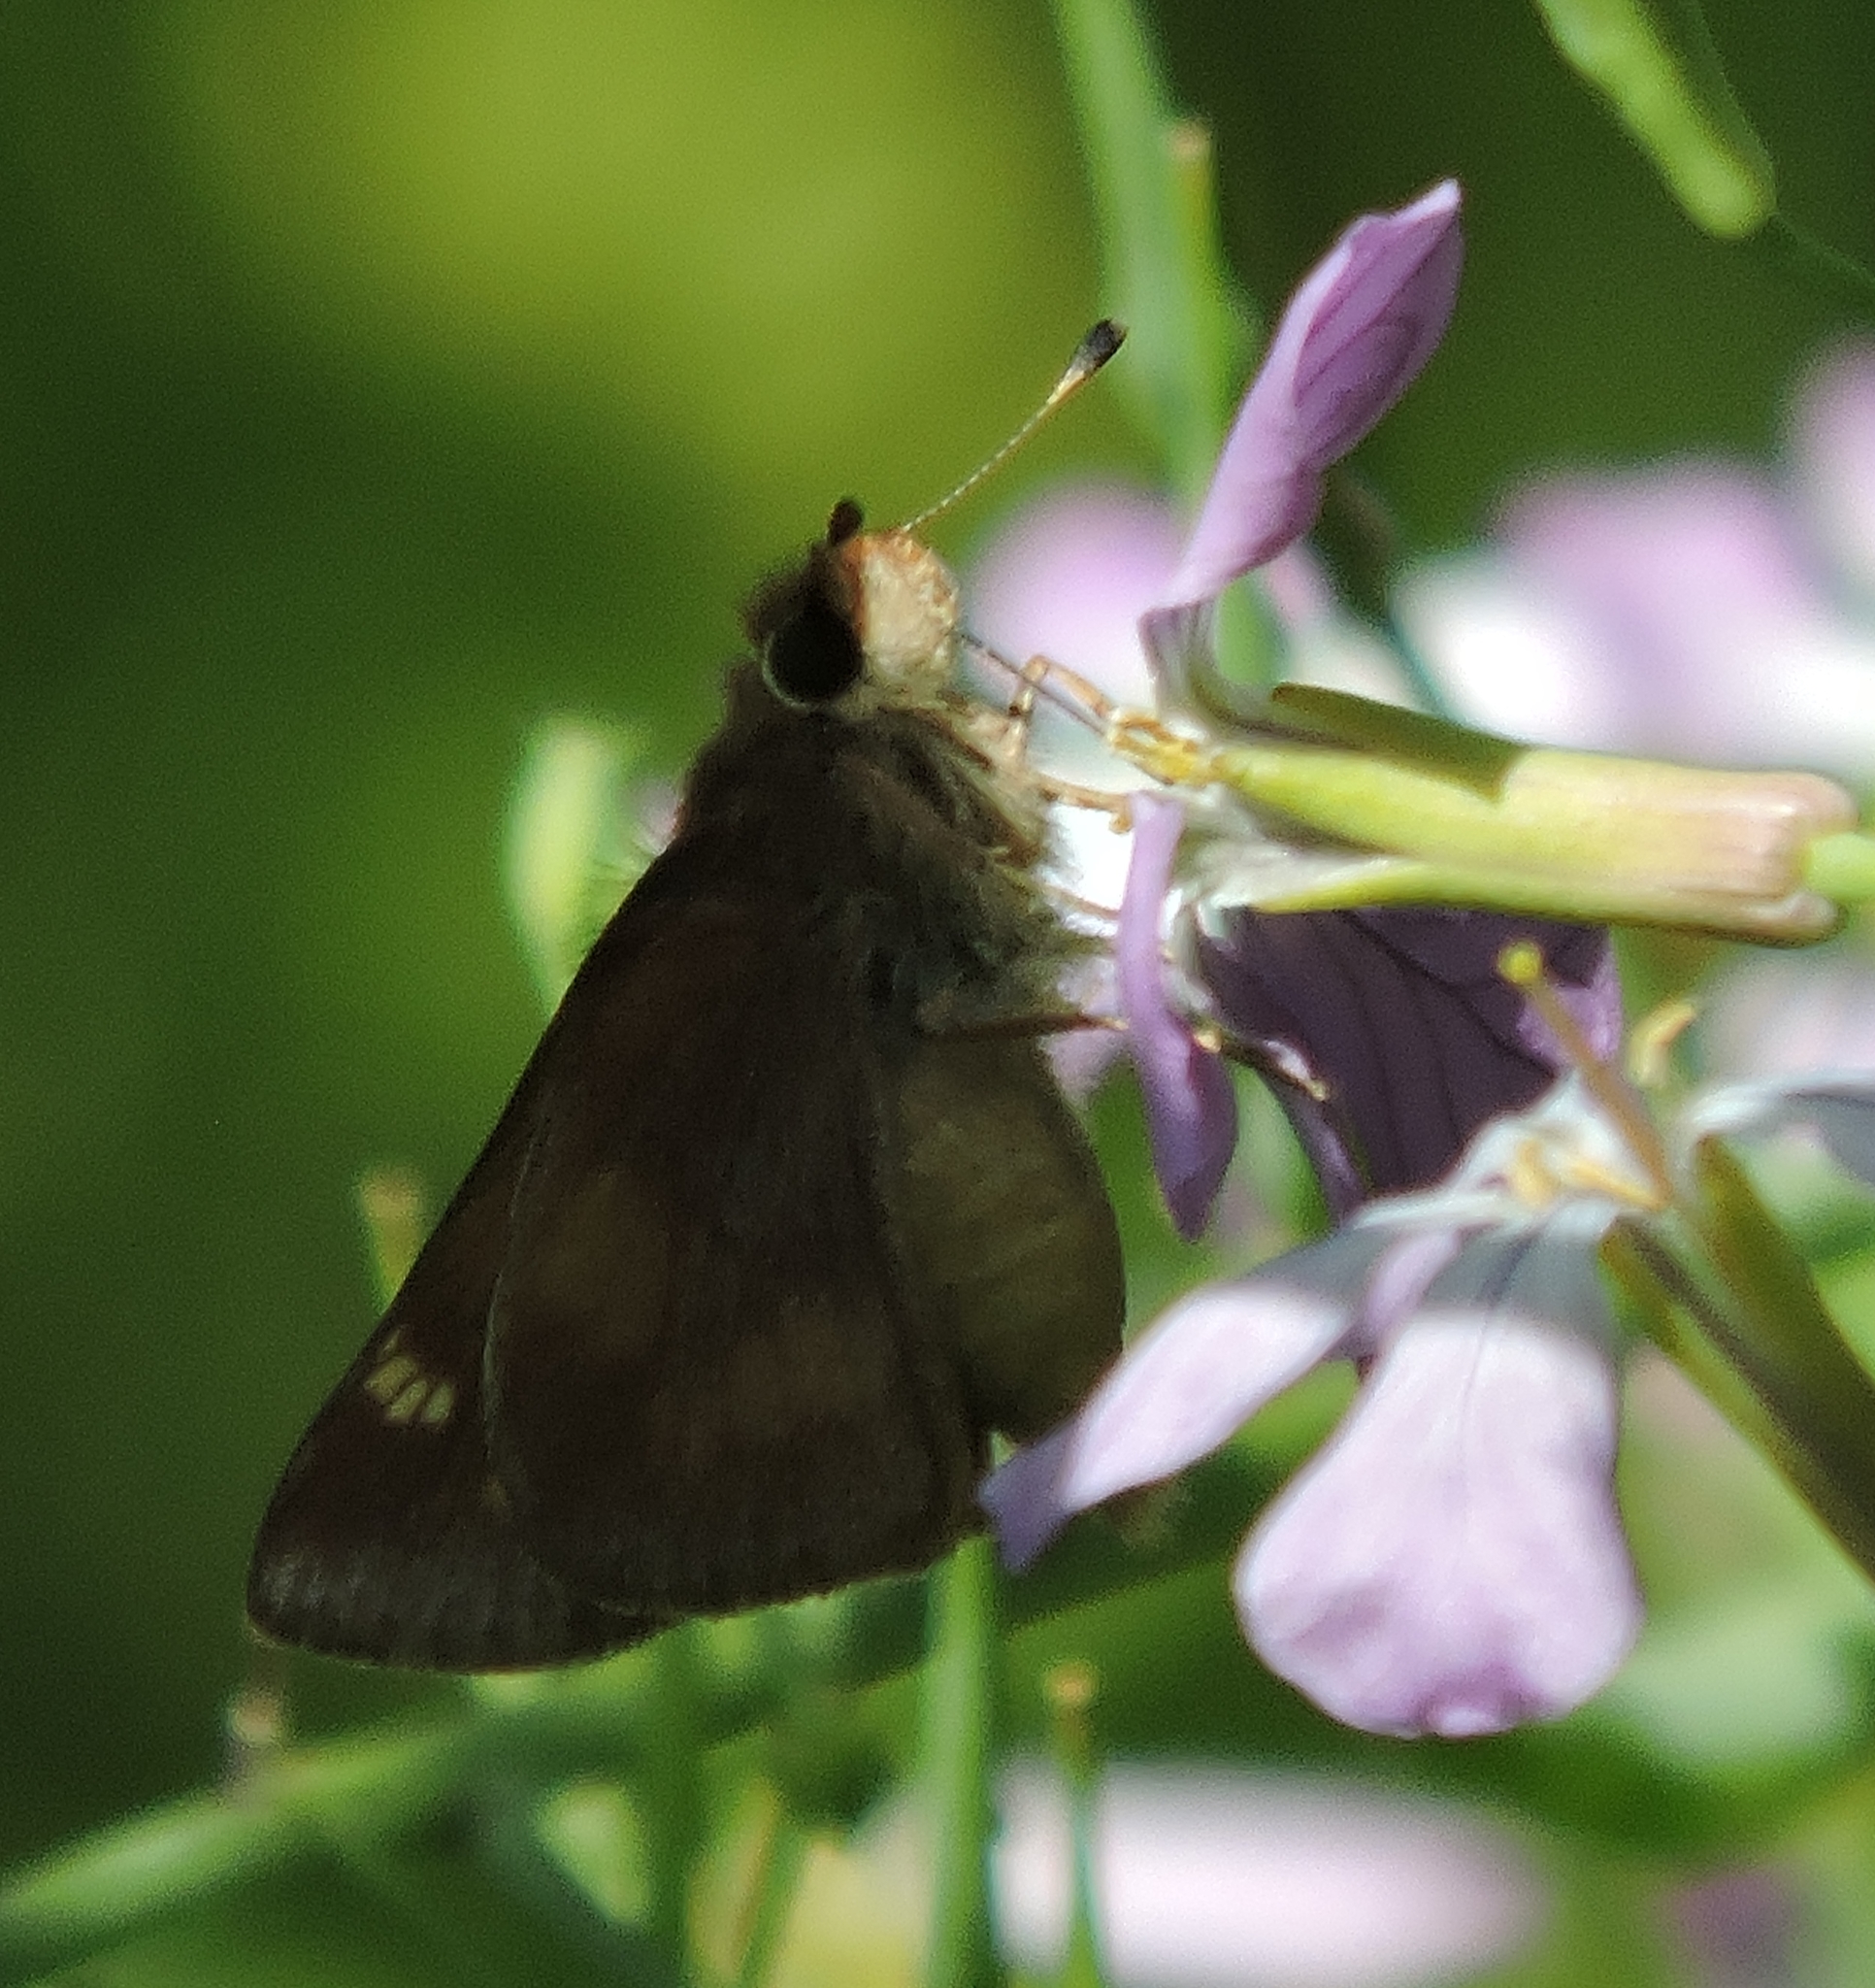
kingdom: Animalia
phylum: Arthropoda
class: Insecta
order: Lepidoptera
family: Hesperiidae
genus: Lon
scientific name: Lon melane
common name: Umber skipper
